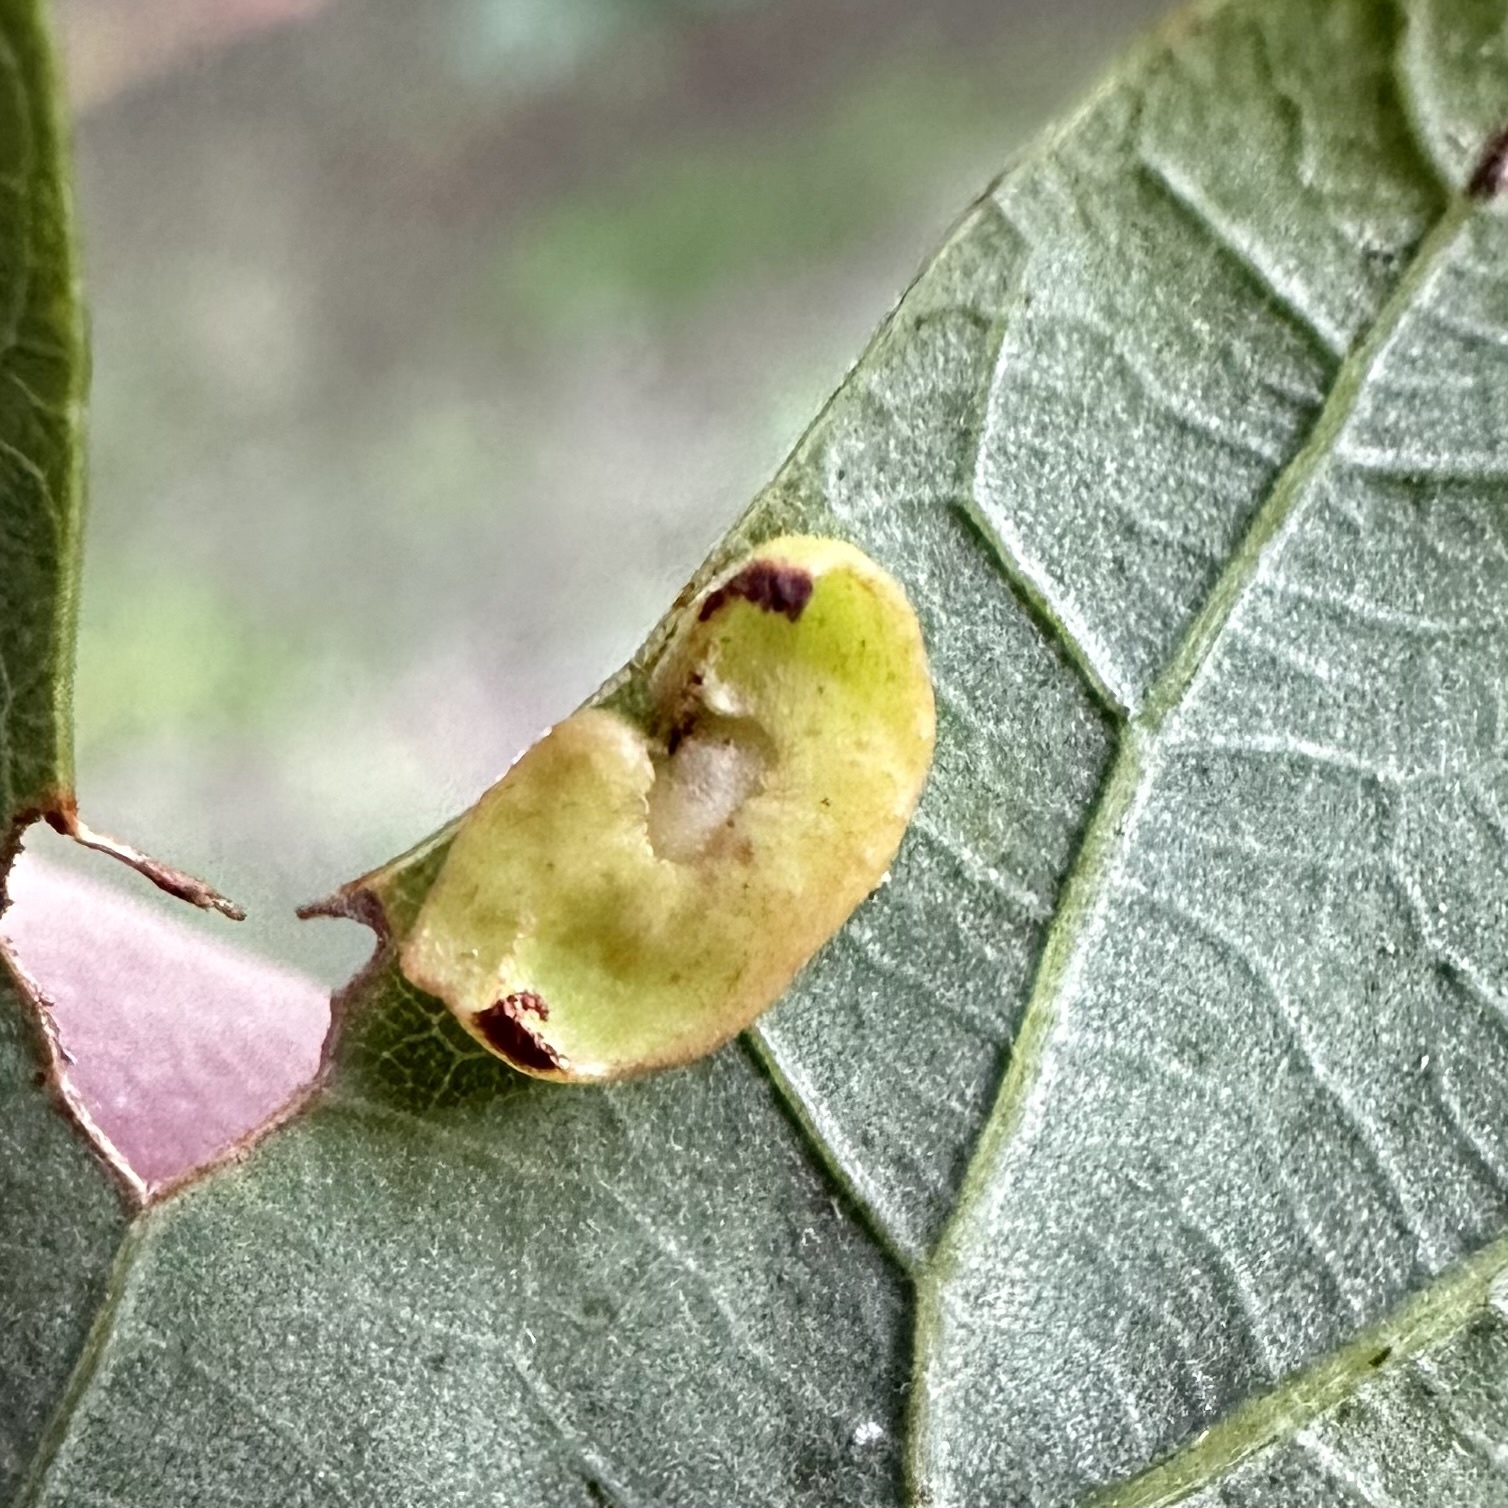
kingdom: Animalia
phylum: Arthropoda
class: Insecta
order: Hymenoptera
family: Cynipidae
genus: Phylloteras
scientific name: Phylloteras
